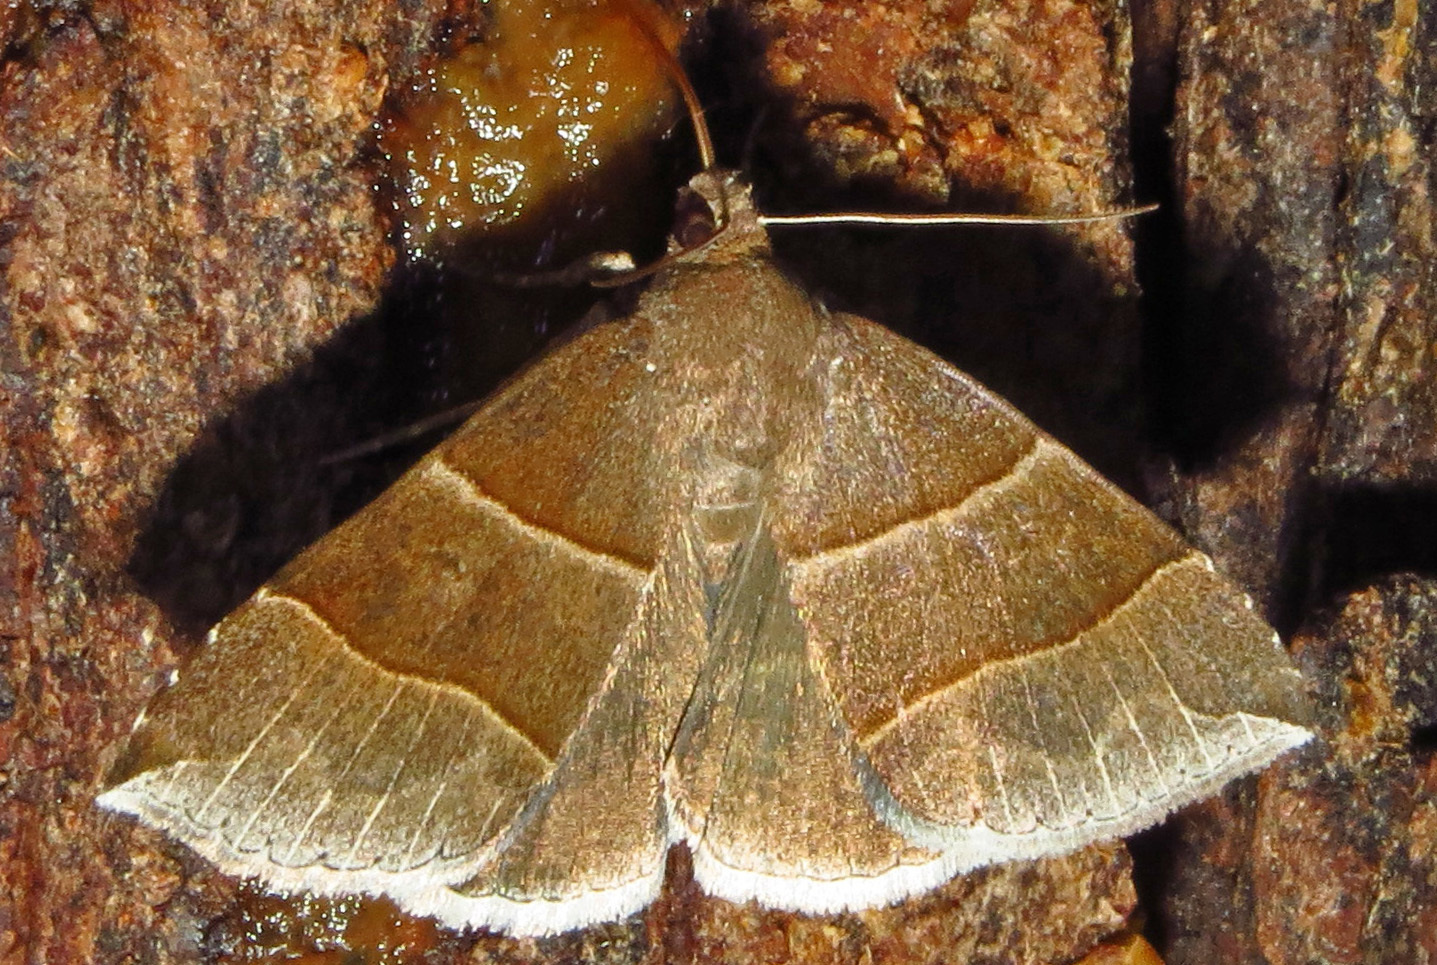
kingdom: Animalia
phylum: Arthropoda
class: Insecta
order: Lepidoptera
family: Erebidae
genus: Parallelia
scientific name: Parallelia bistriaris
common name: Maple looper moth
